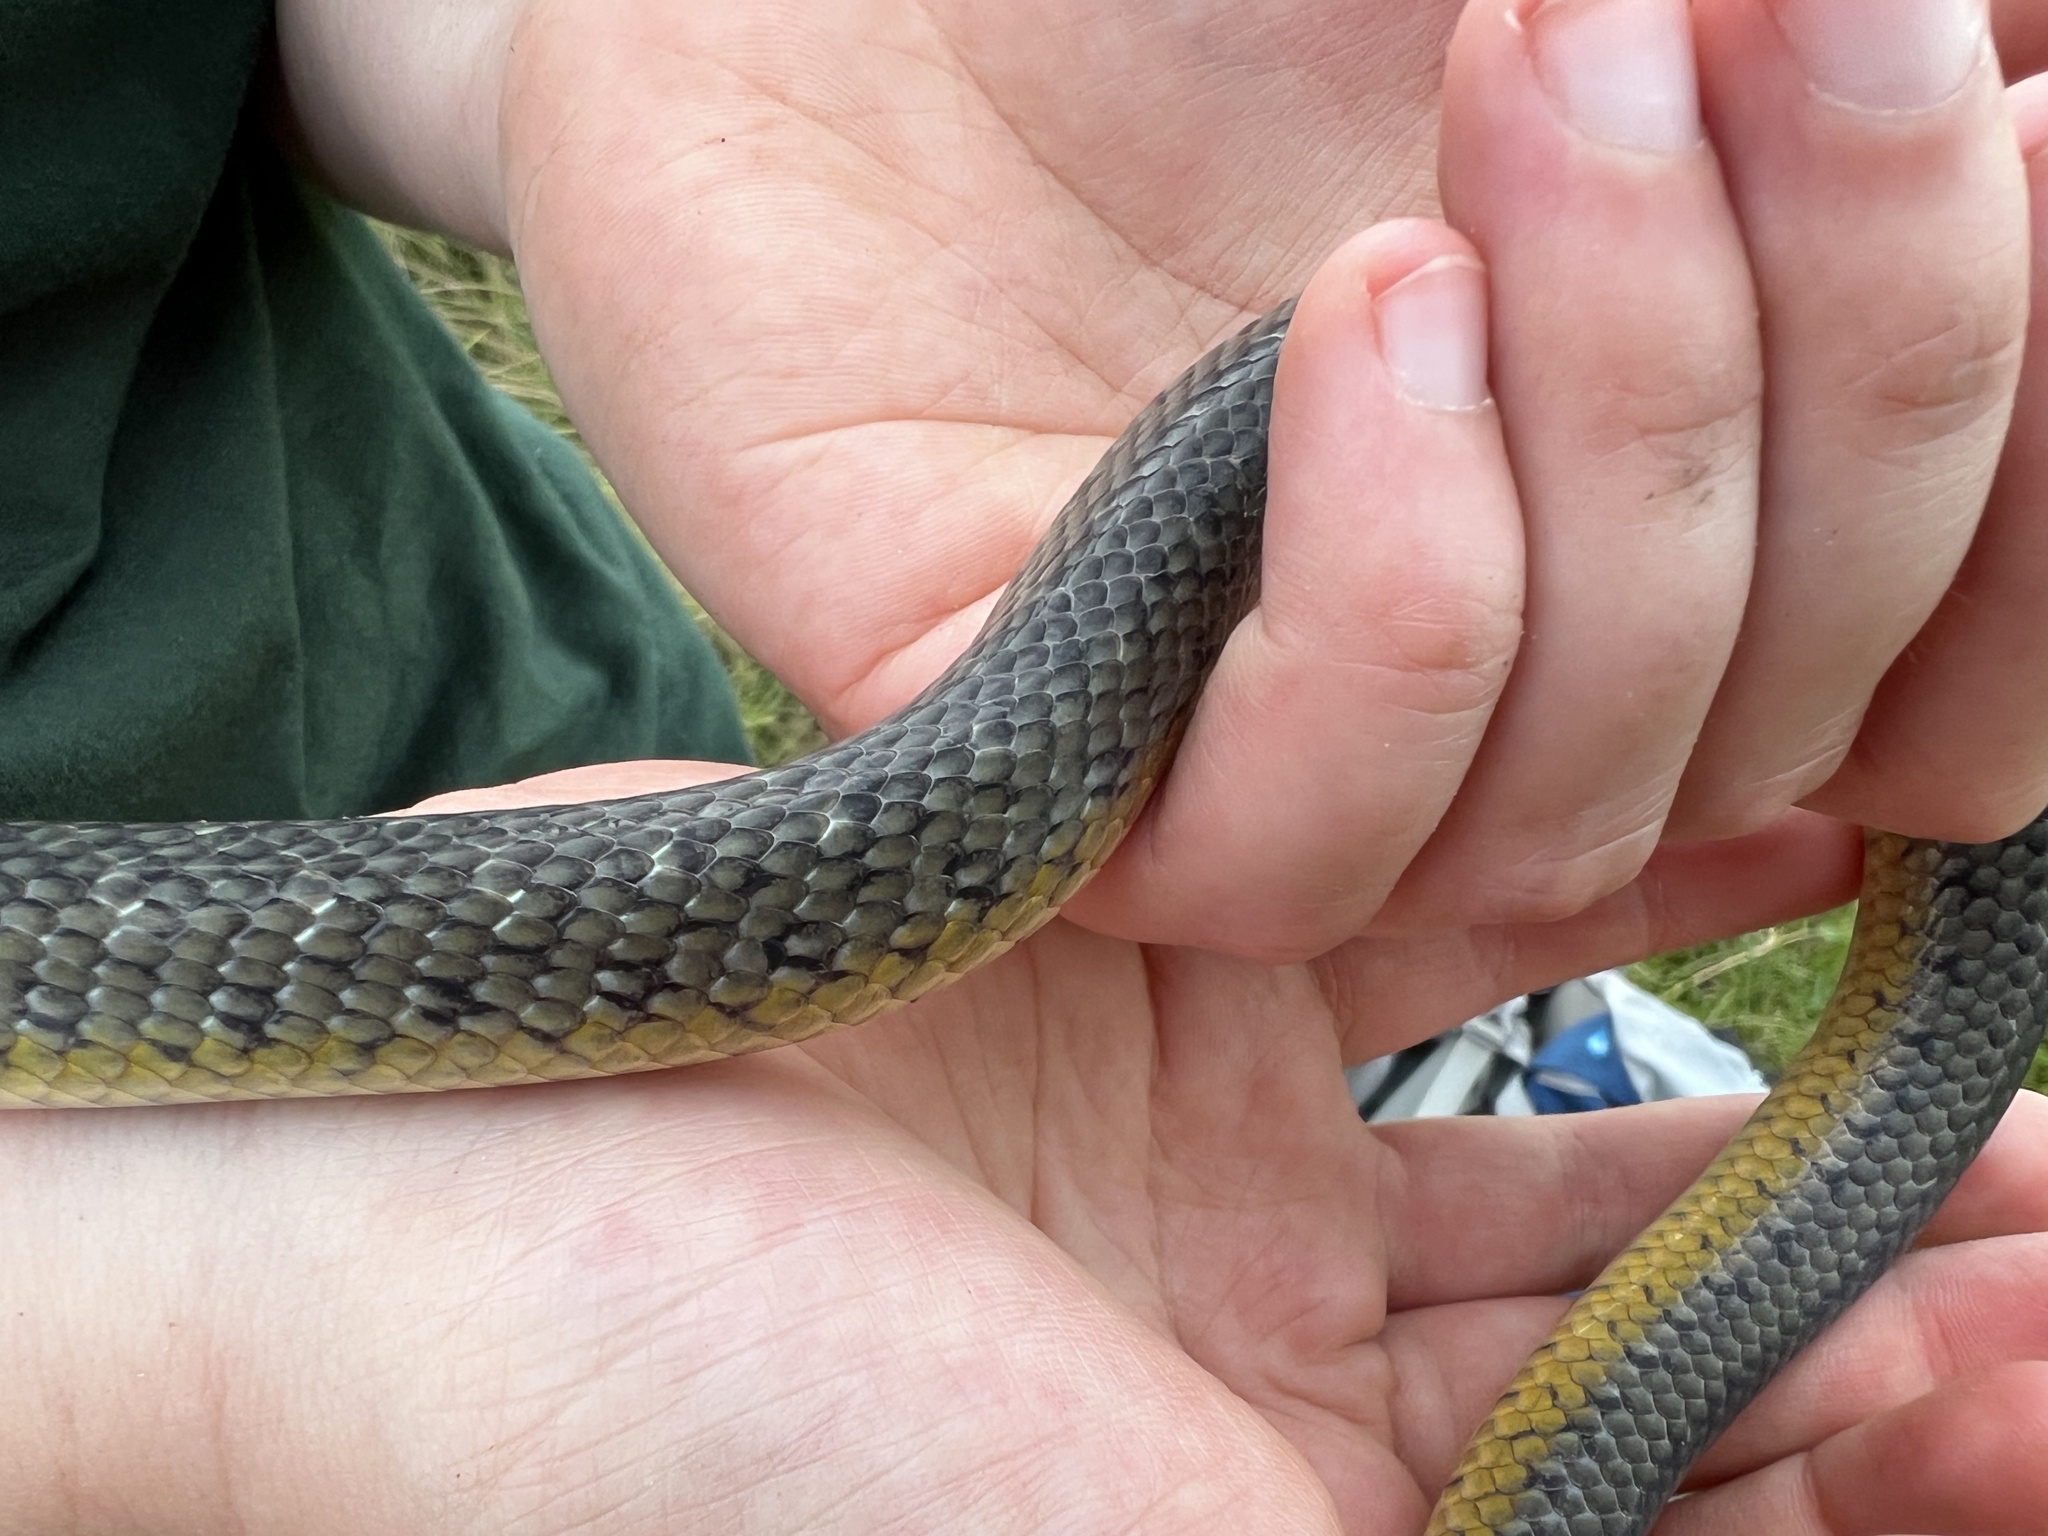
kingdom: Animalia
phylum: Chordata
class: Squamata
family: Colubridae
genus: Erythrolamprus
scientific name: Erythrolamprus poecilogyrus
